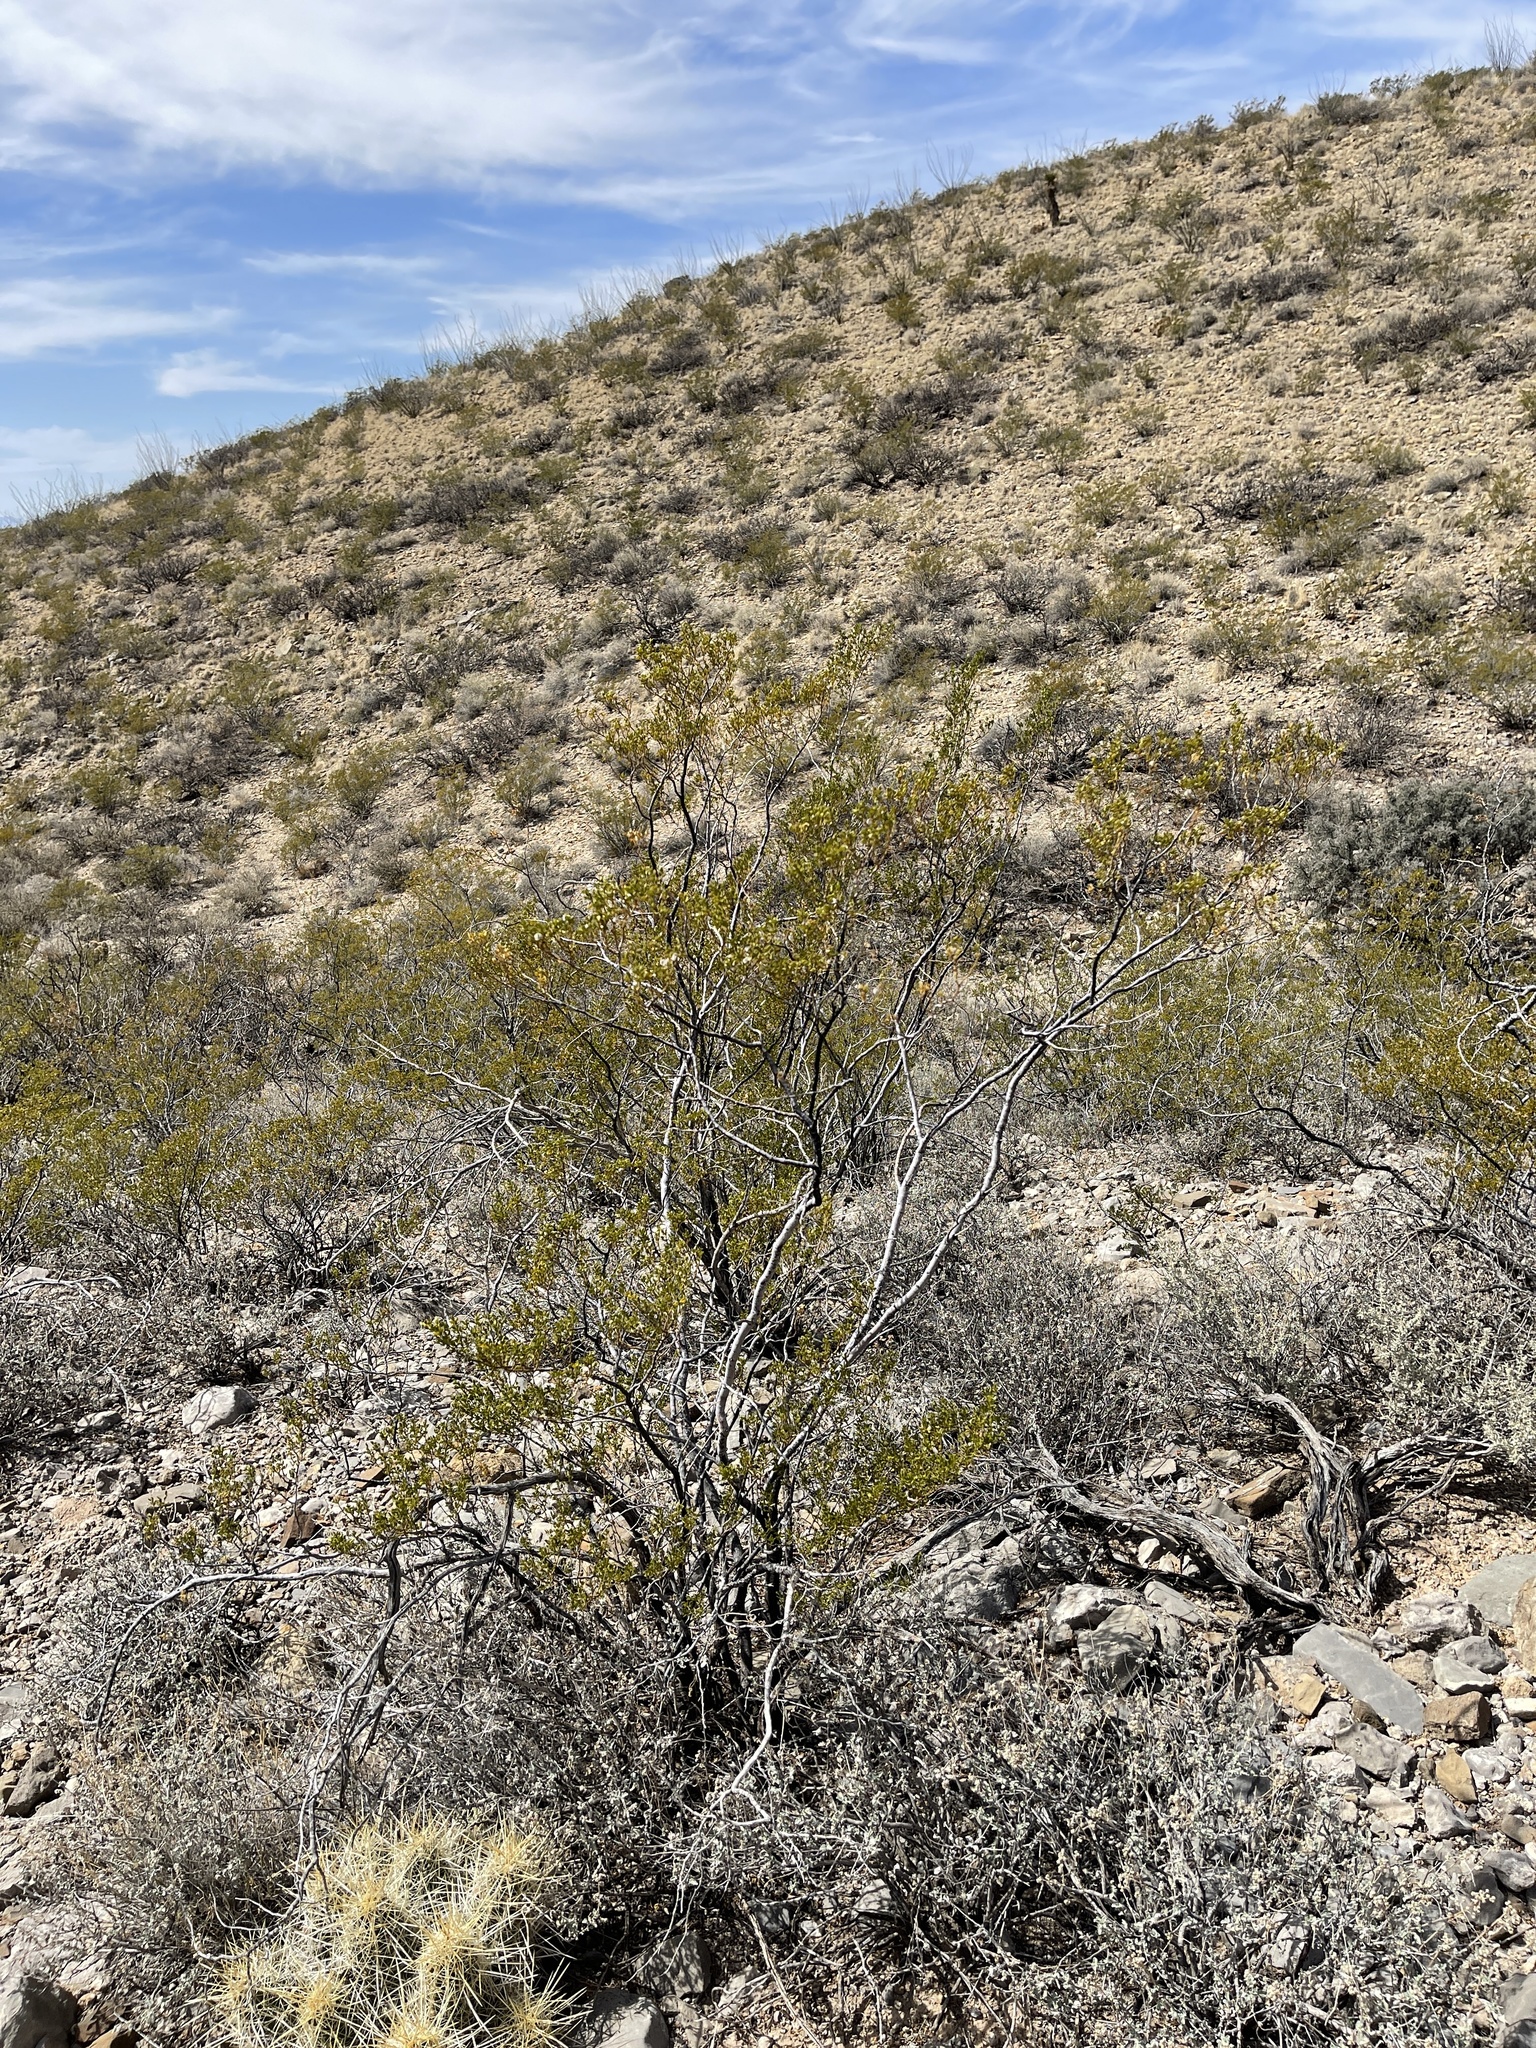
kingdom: Plantae
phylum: Tracheophyta
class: Magnoliopsida
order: Zygophyllales
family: Zygophyllaceae
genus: Larrea
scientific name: Larrea tridentata
